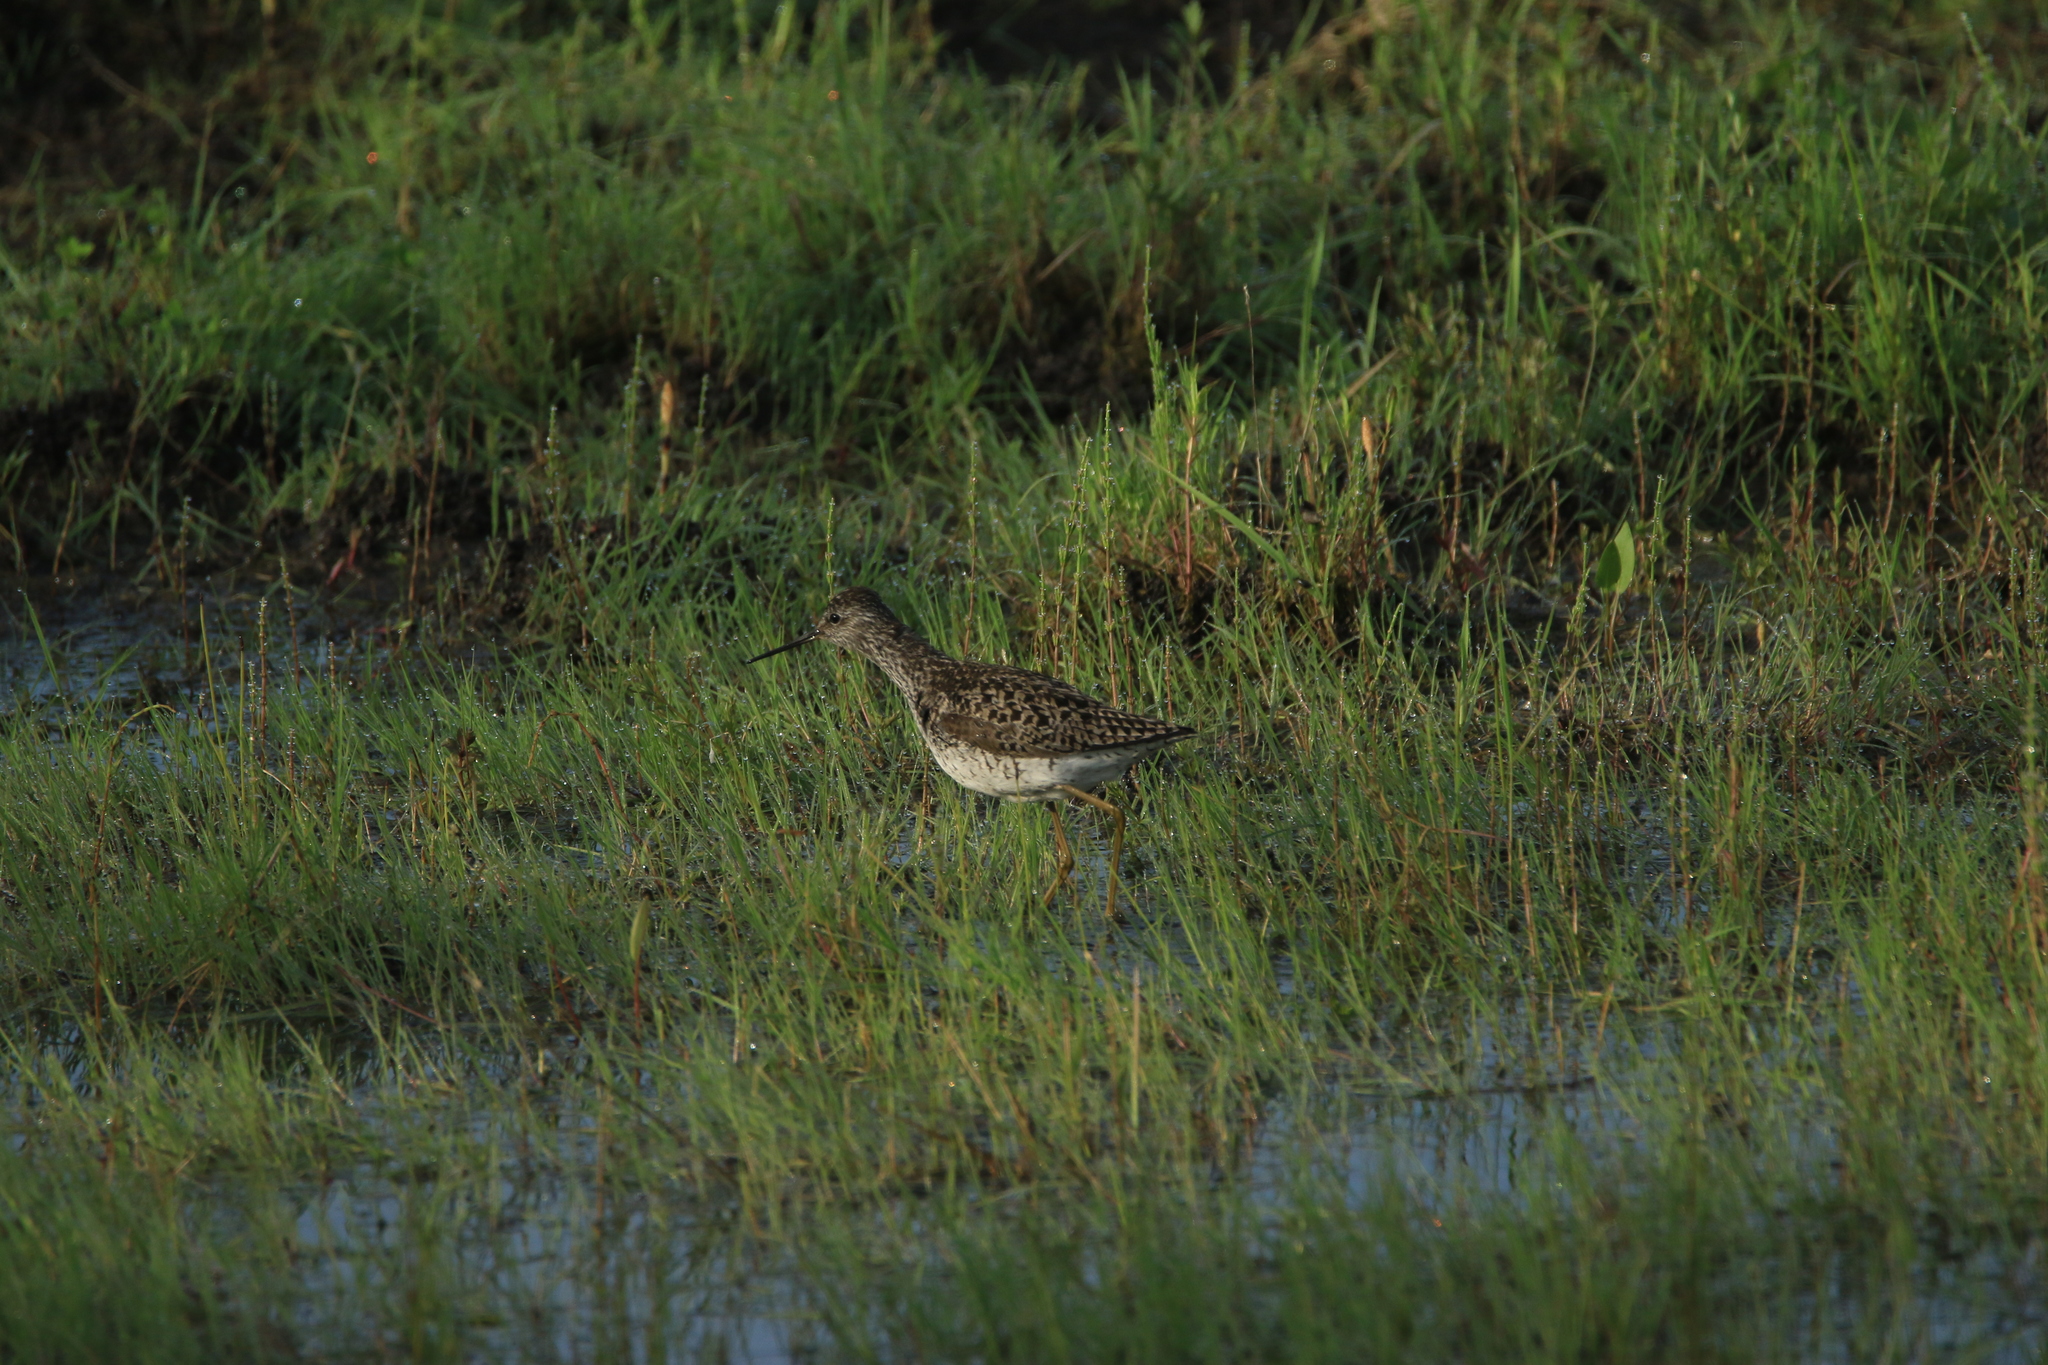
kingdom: Animalia
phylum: Chordata
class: Aves
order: Charadriiformes
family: Scolopacidae
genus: Tringa
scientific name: Tringa glareola
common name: Wood sandpiper
